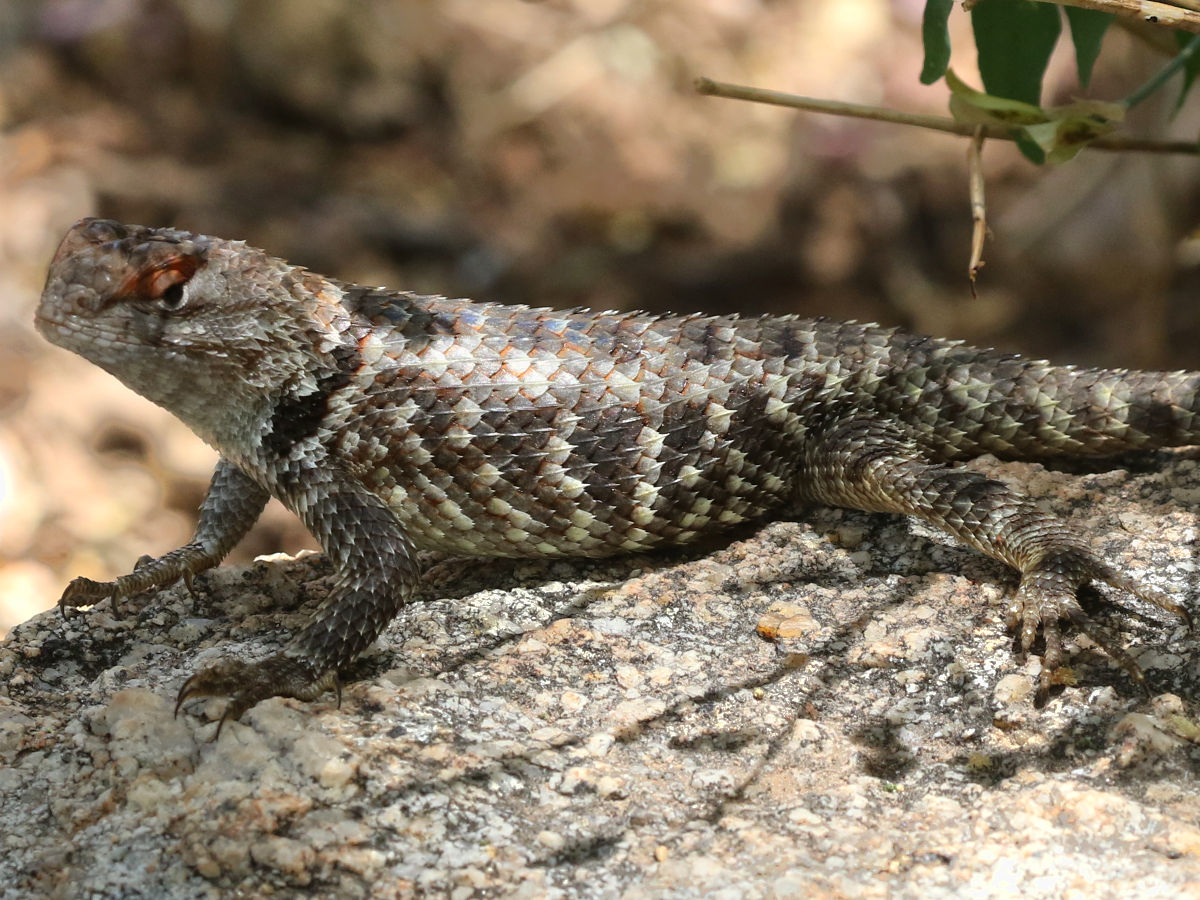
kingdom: Animalia
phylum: Chordata
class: Squamata
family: Phrynosomatidae
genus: Sceloporus
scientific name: Sceloporus magister
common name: Desert spiny lizard
